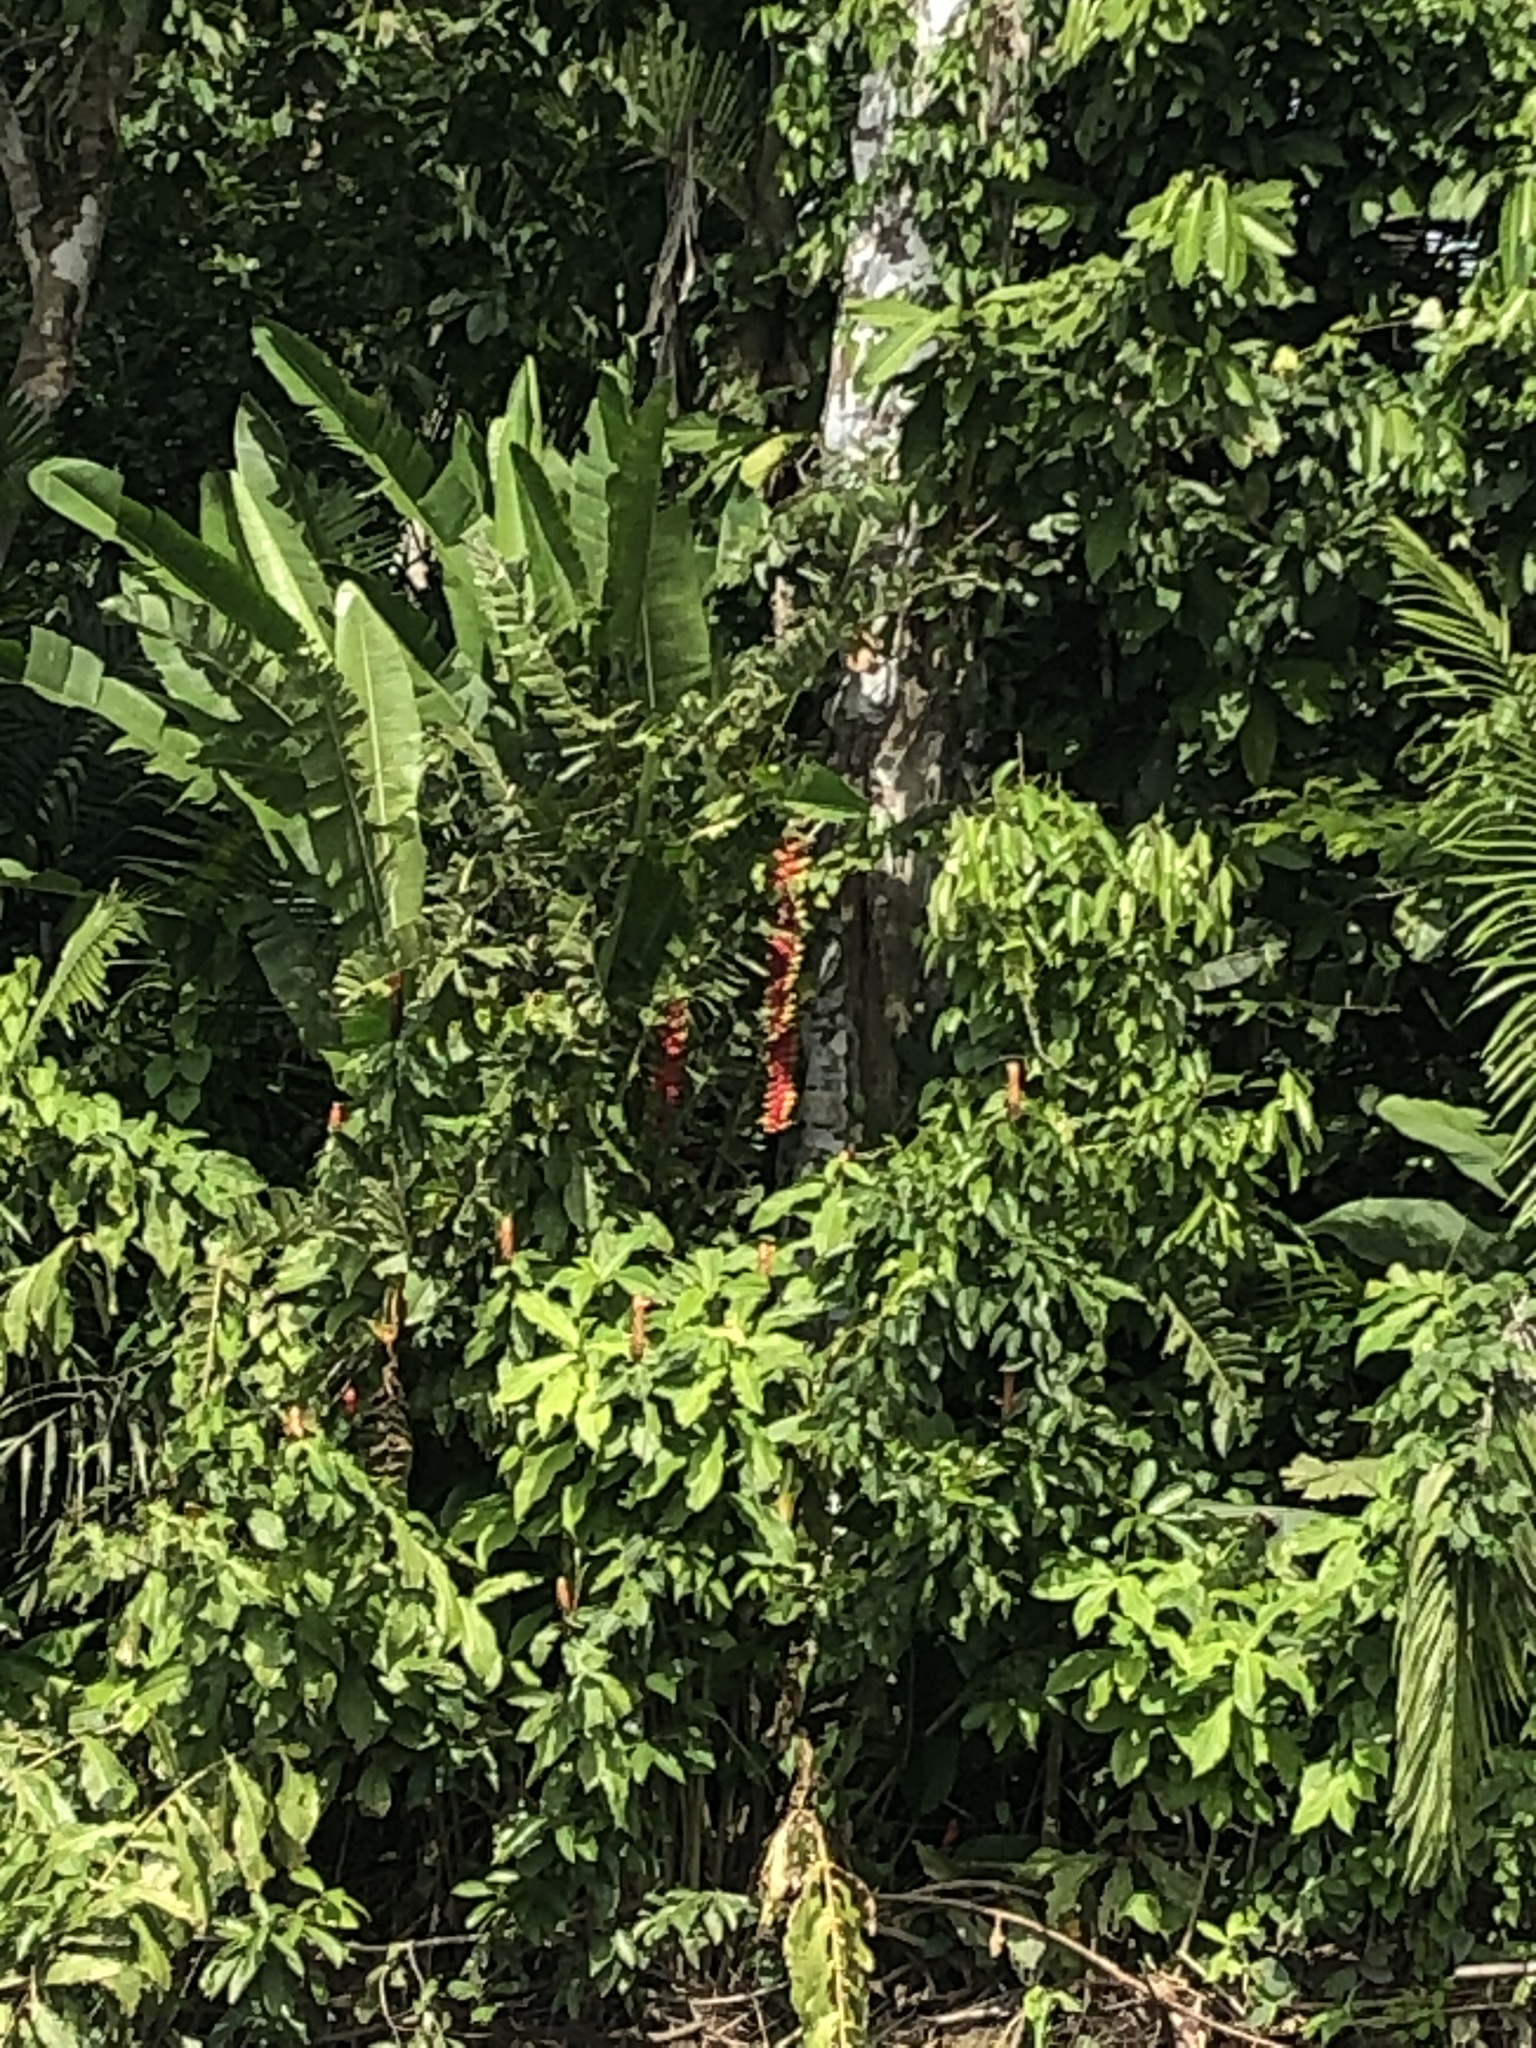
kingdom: Plantae
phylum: Tracheophyta
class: Liliopsida
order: Zingiberales
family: Heliconiaceae
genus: Heliconia
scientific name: Heliconia rostrata
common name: False bird of paradise
